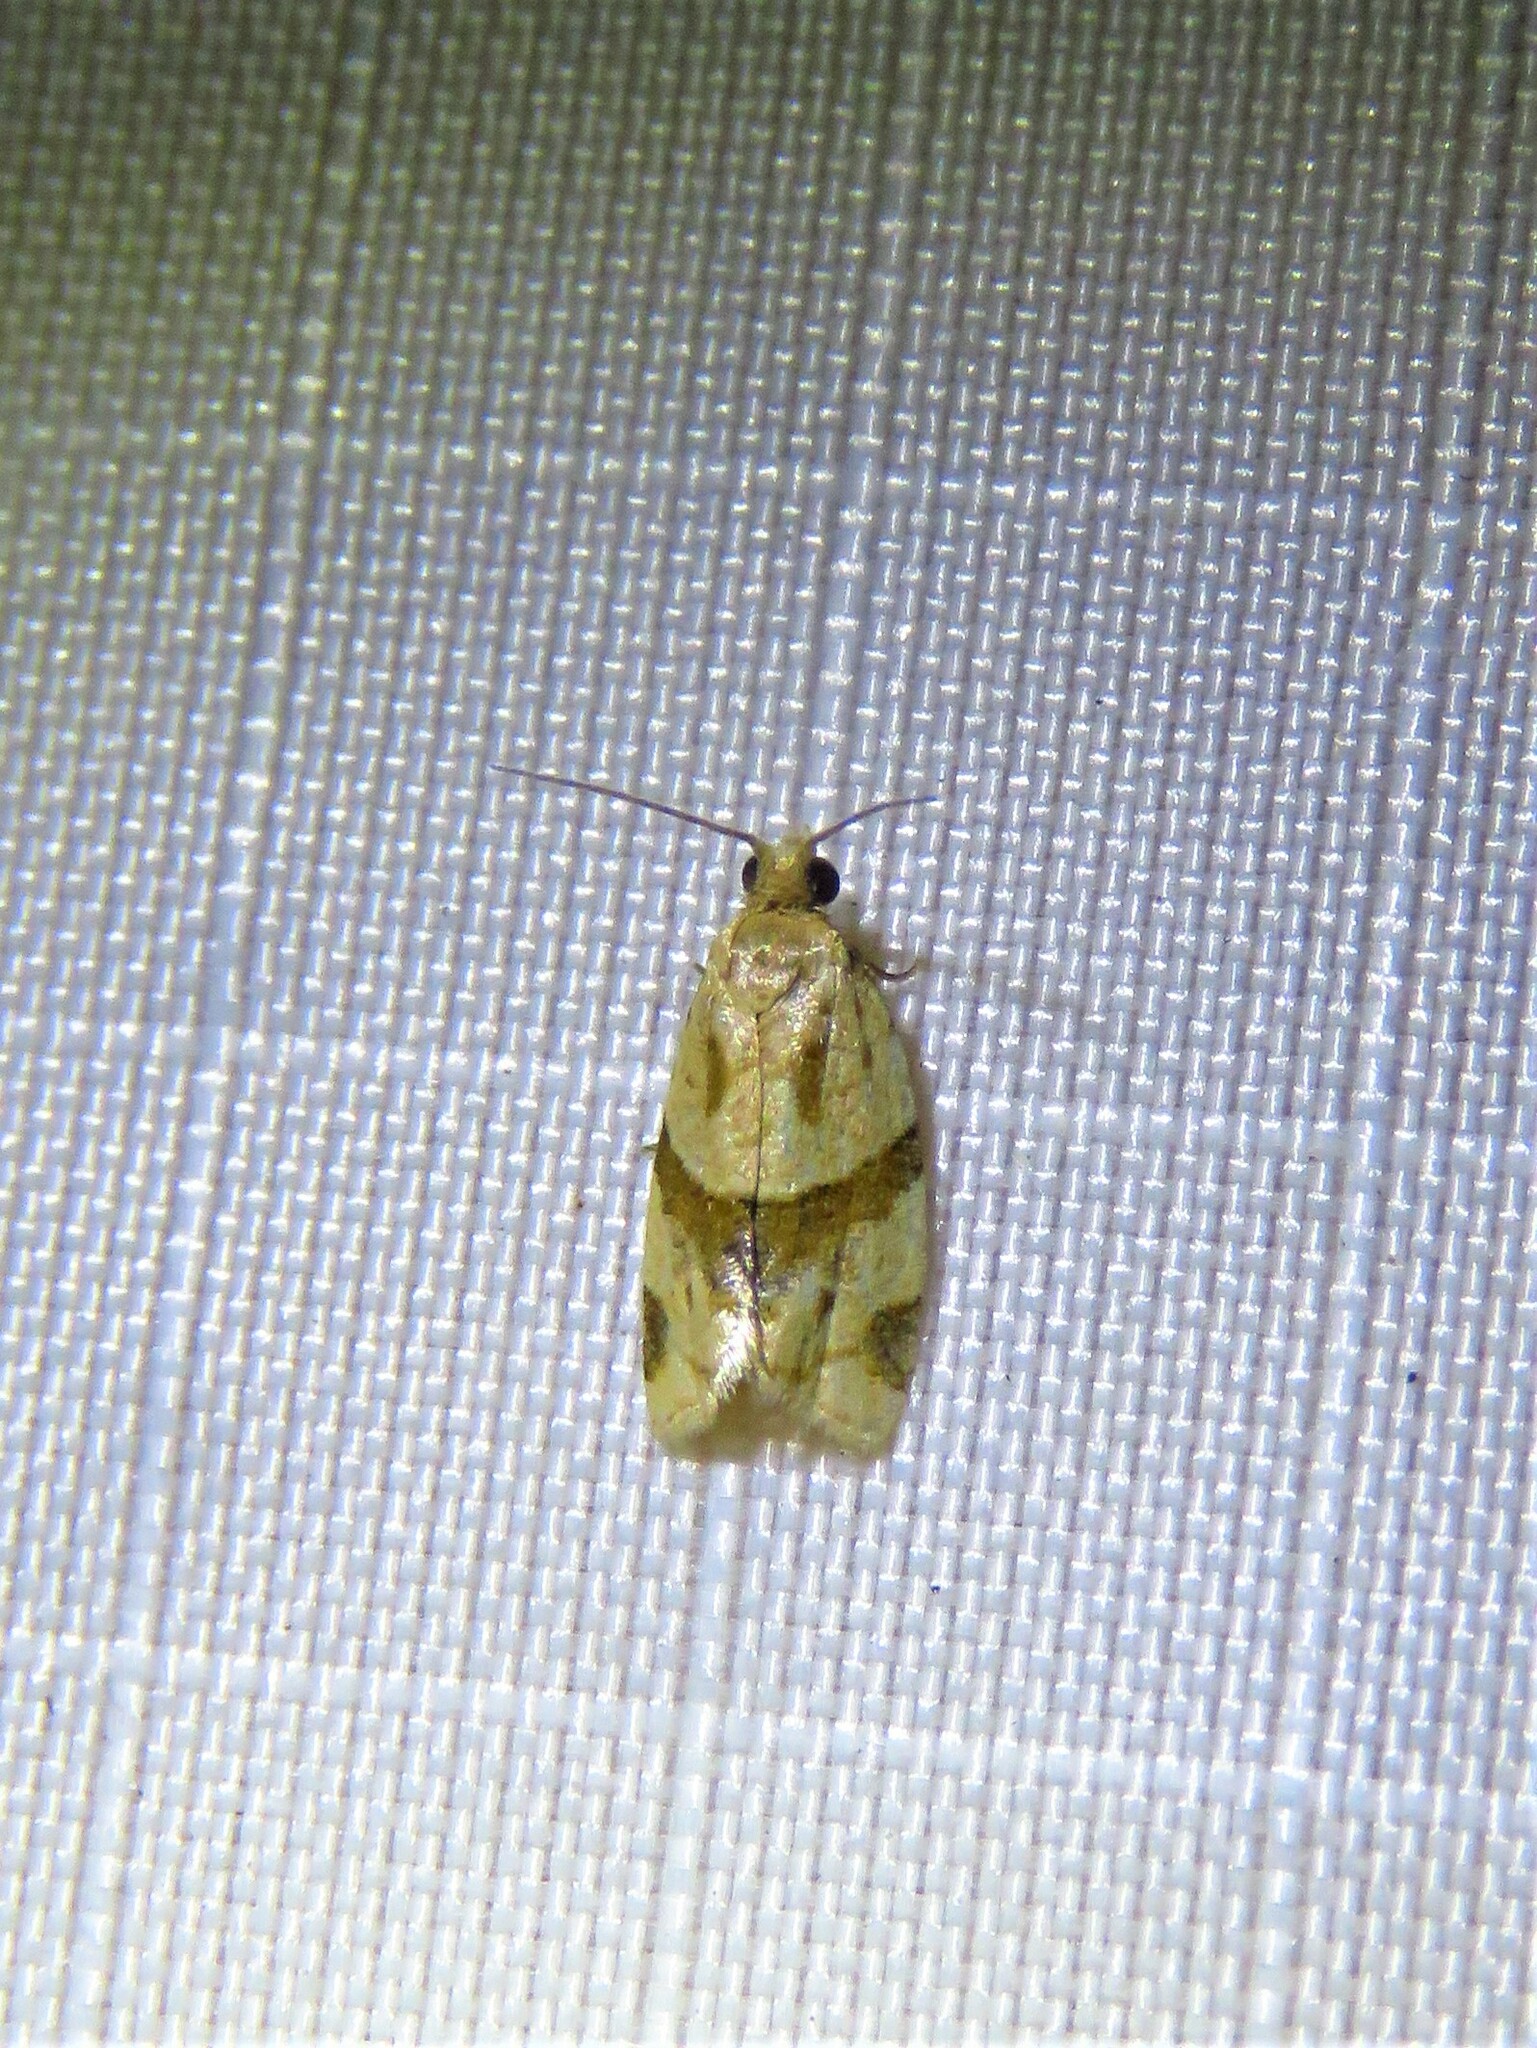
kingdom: Animalia
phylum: Arthropoda
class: Insecta
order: Lepidoptera
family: Tortricidae
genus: Clepsis
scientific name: Clepsis peritana
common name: Garden tortrix
